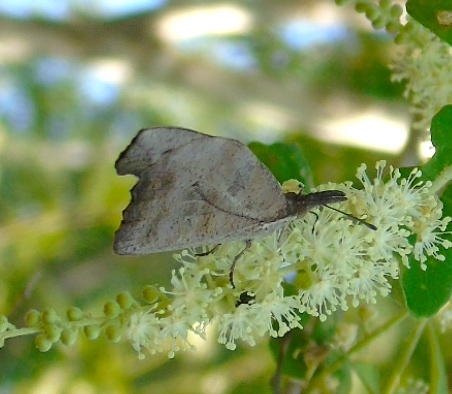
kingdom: Animalia
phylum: Arthropoda
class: Insecta
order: Lepidoptera
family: Nymphalidae
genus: Libytheana
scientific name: Libytheana carinenta
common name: American snout
